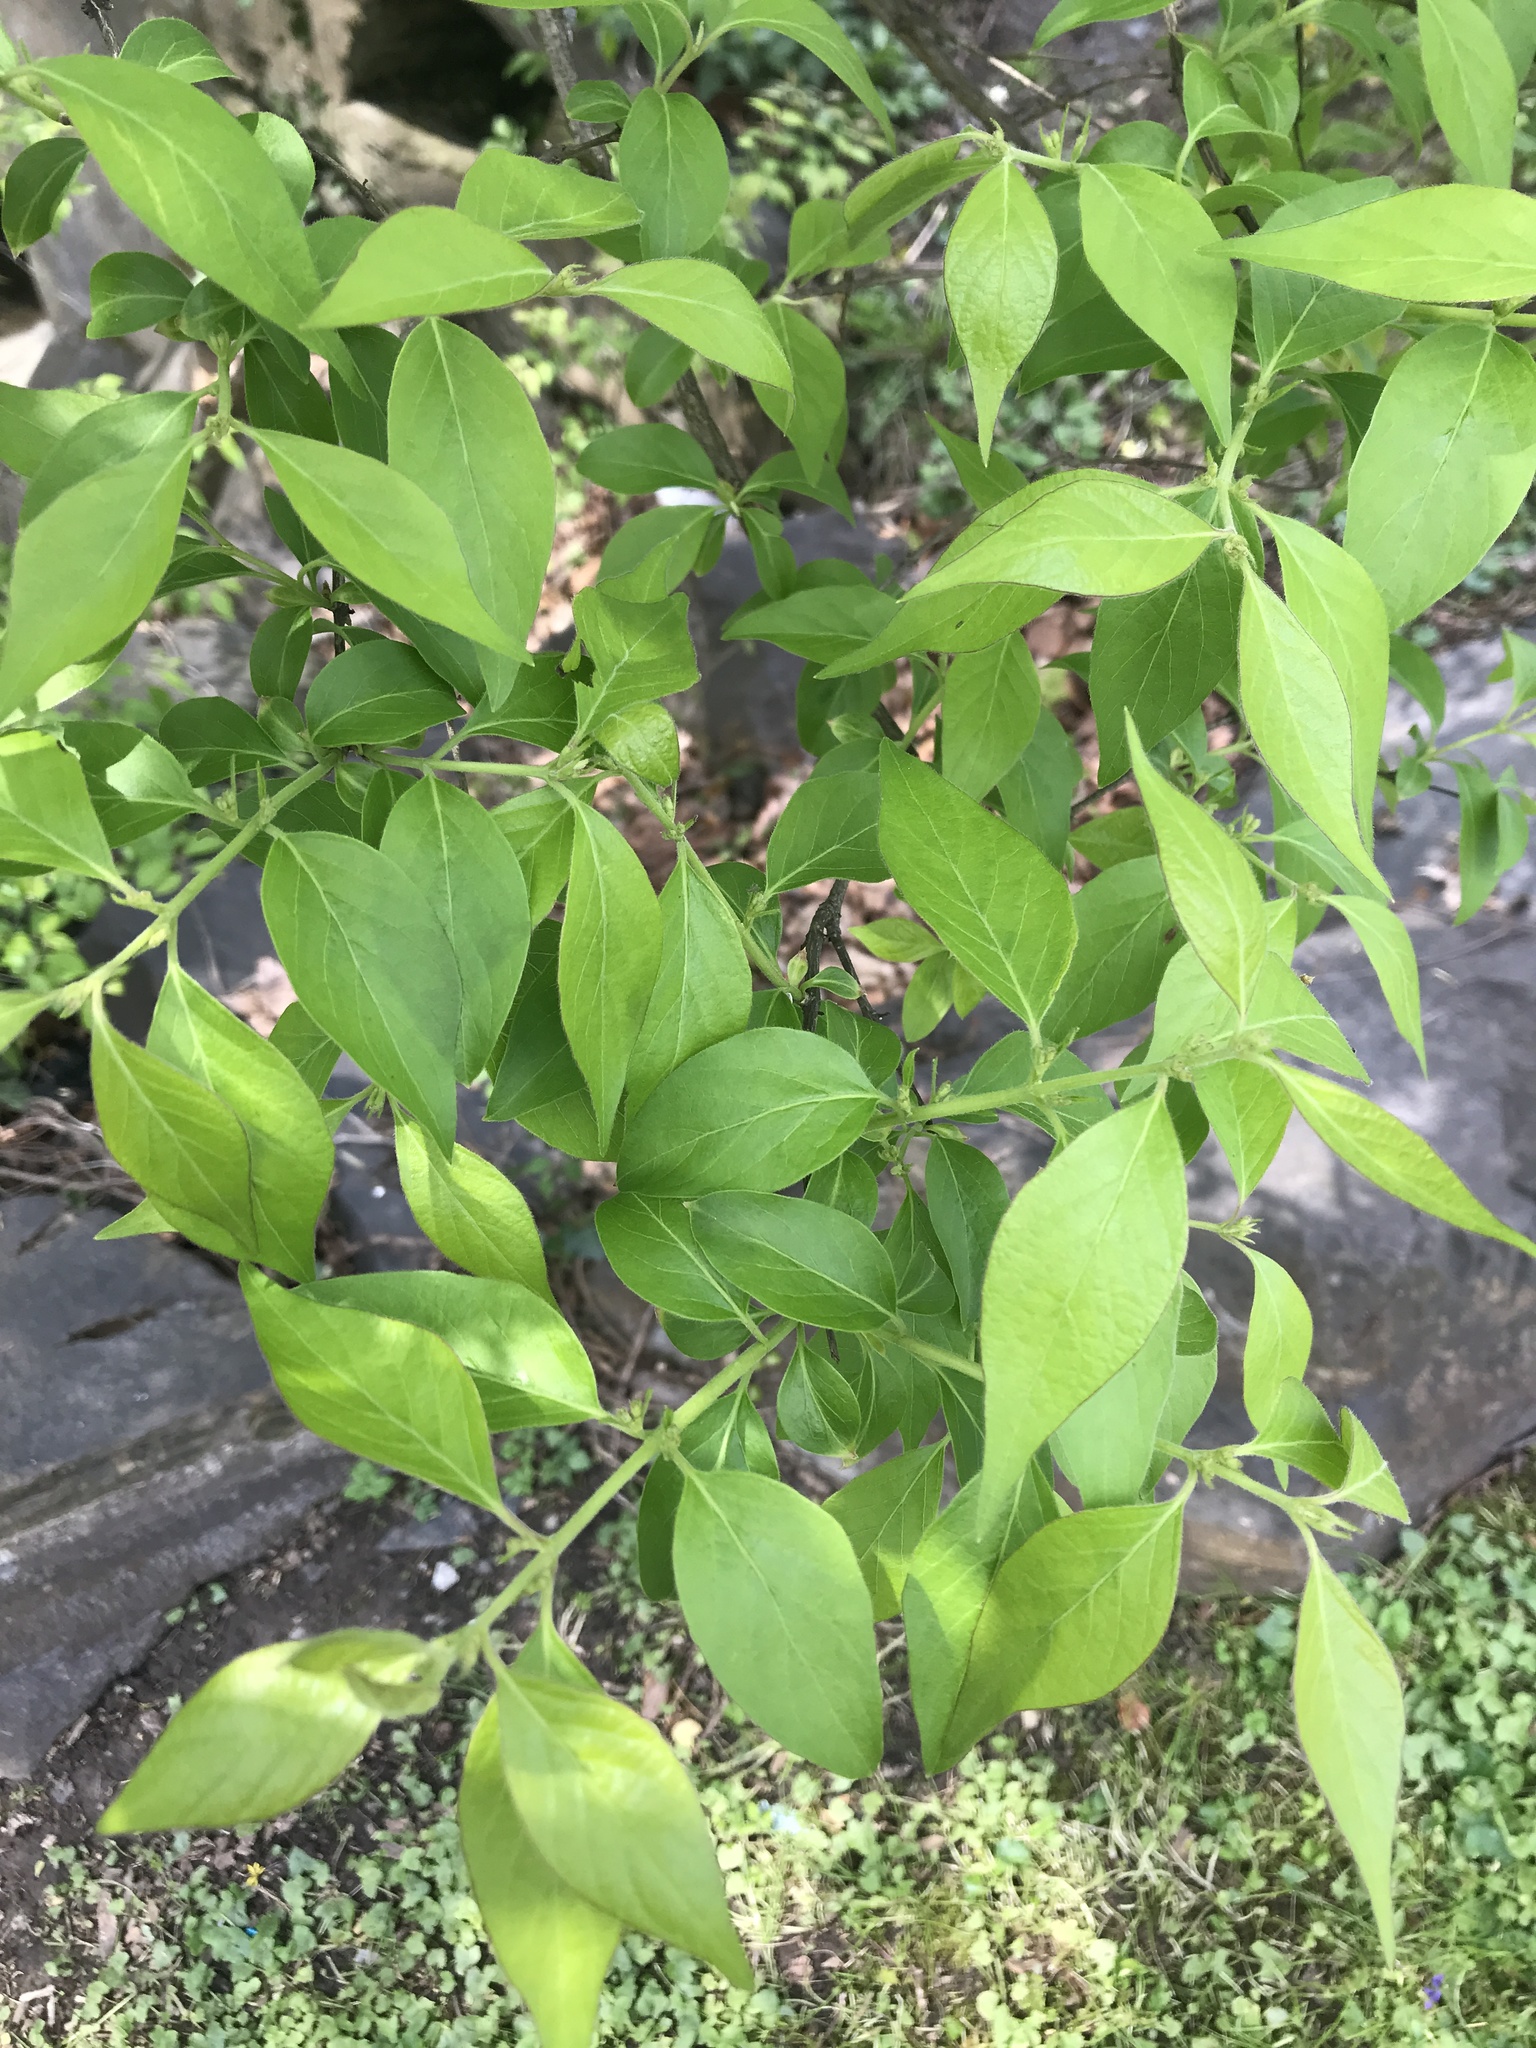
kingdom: Plantae
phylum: Tracheophyta
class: Magnoliopsida
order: Dipsacales
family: Caprifoliaceae
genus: Lonicera
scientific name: Lonicera maackii
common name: Amur honeysuckle
